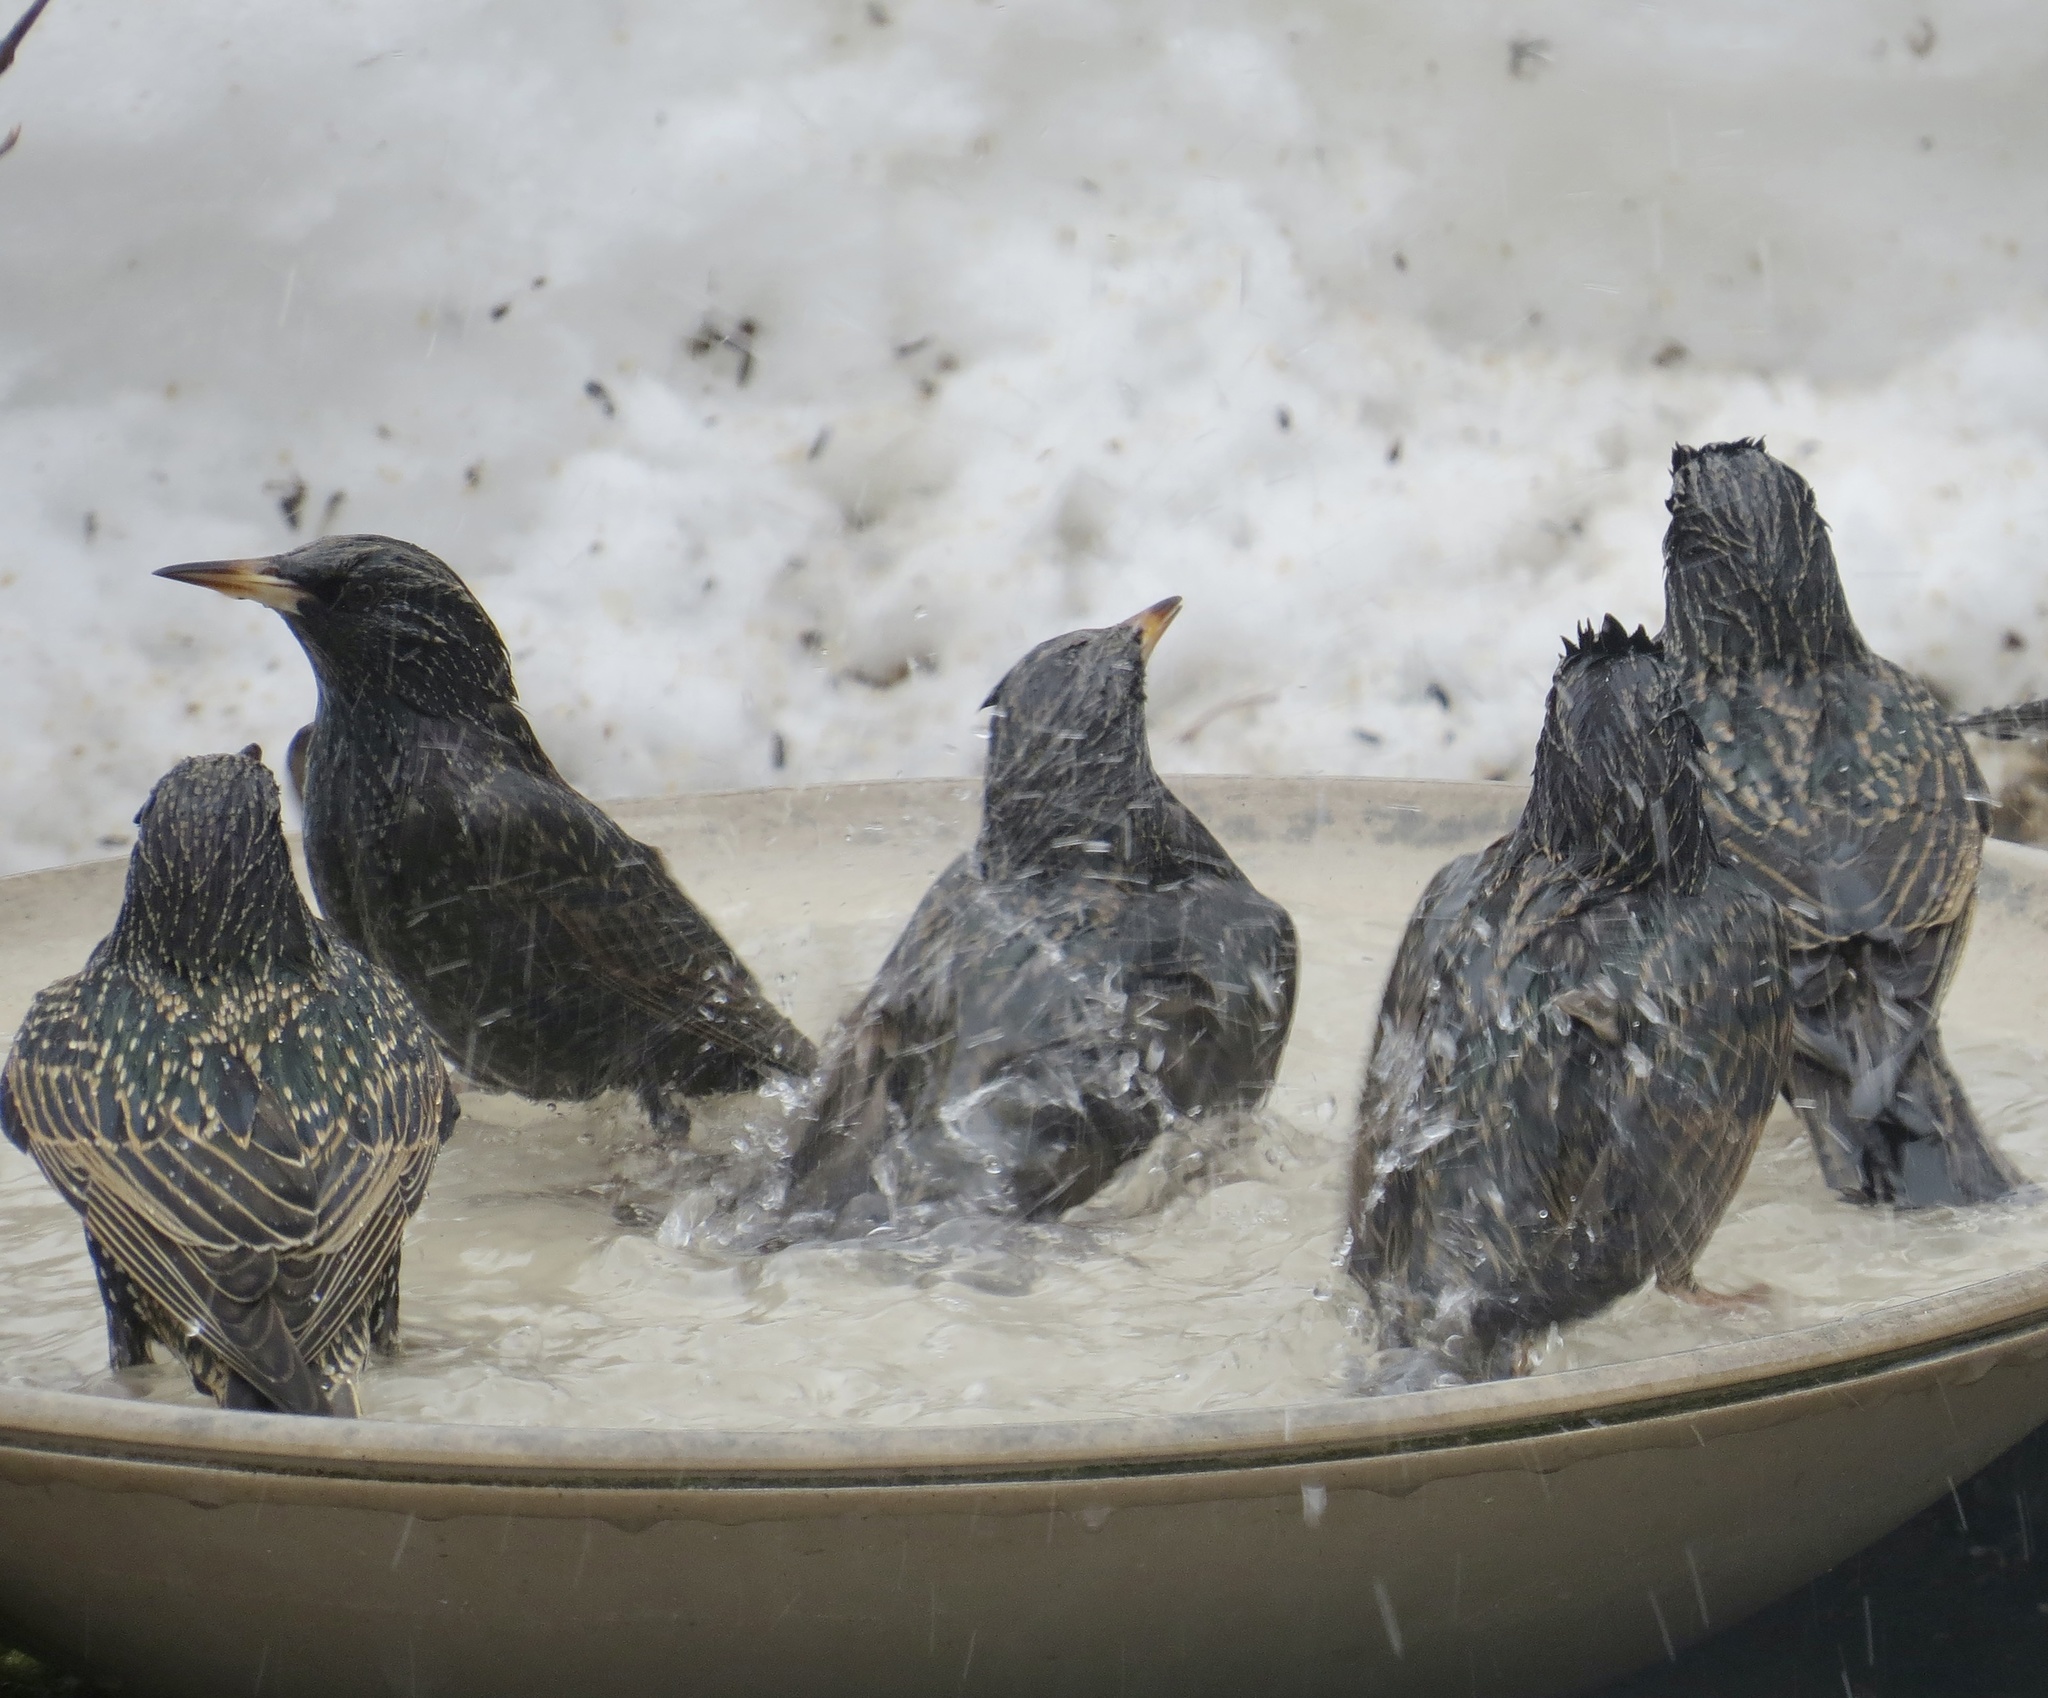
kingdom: Animalia
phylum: Chordata
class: Aves
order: Passeriformes
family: Sturnidae
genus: Sturnus
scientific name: Sturnus vulgaris
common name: Common starling
